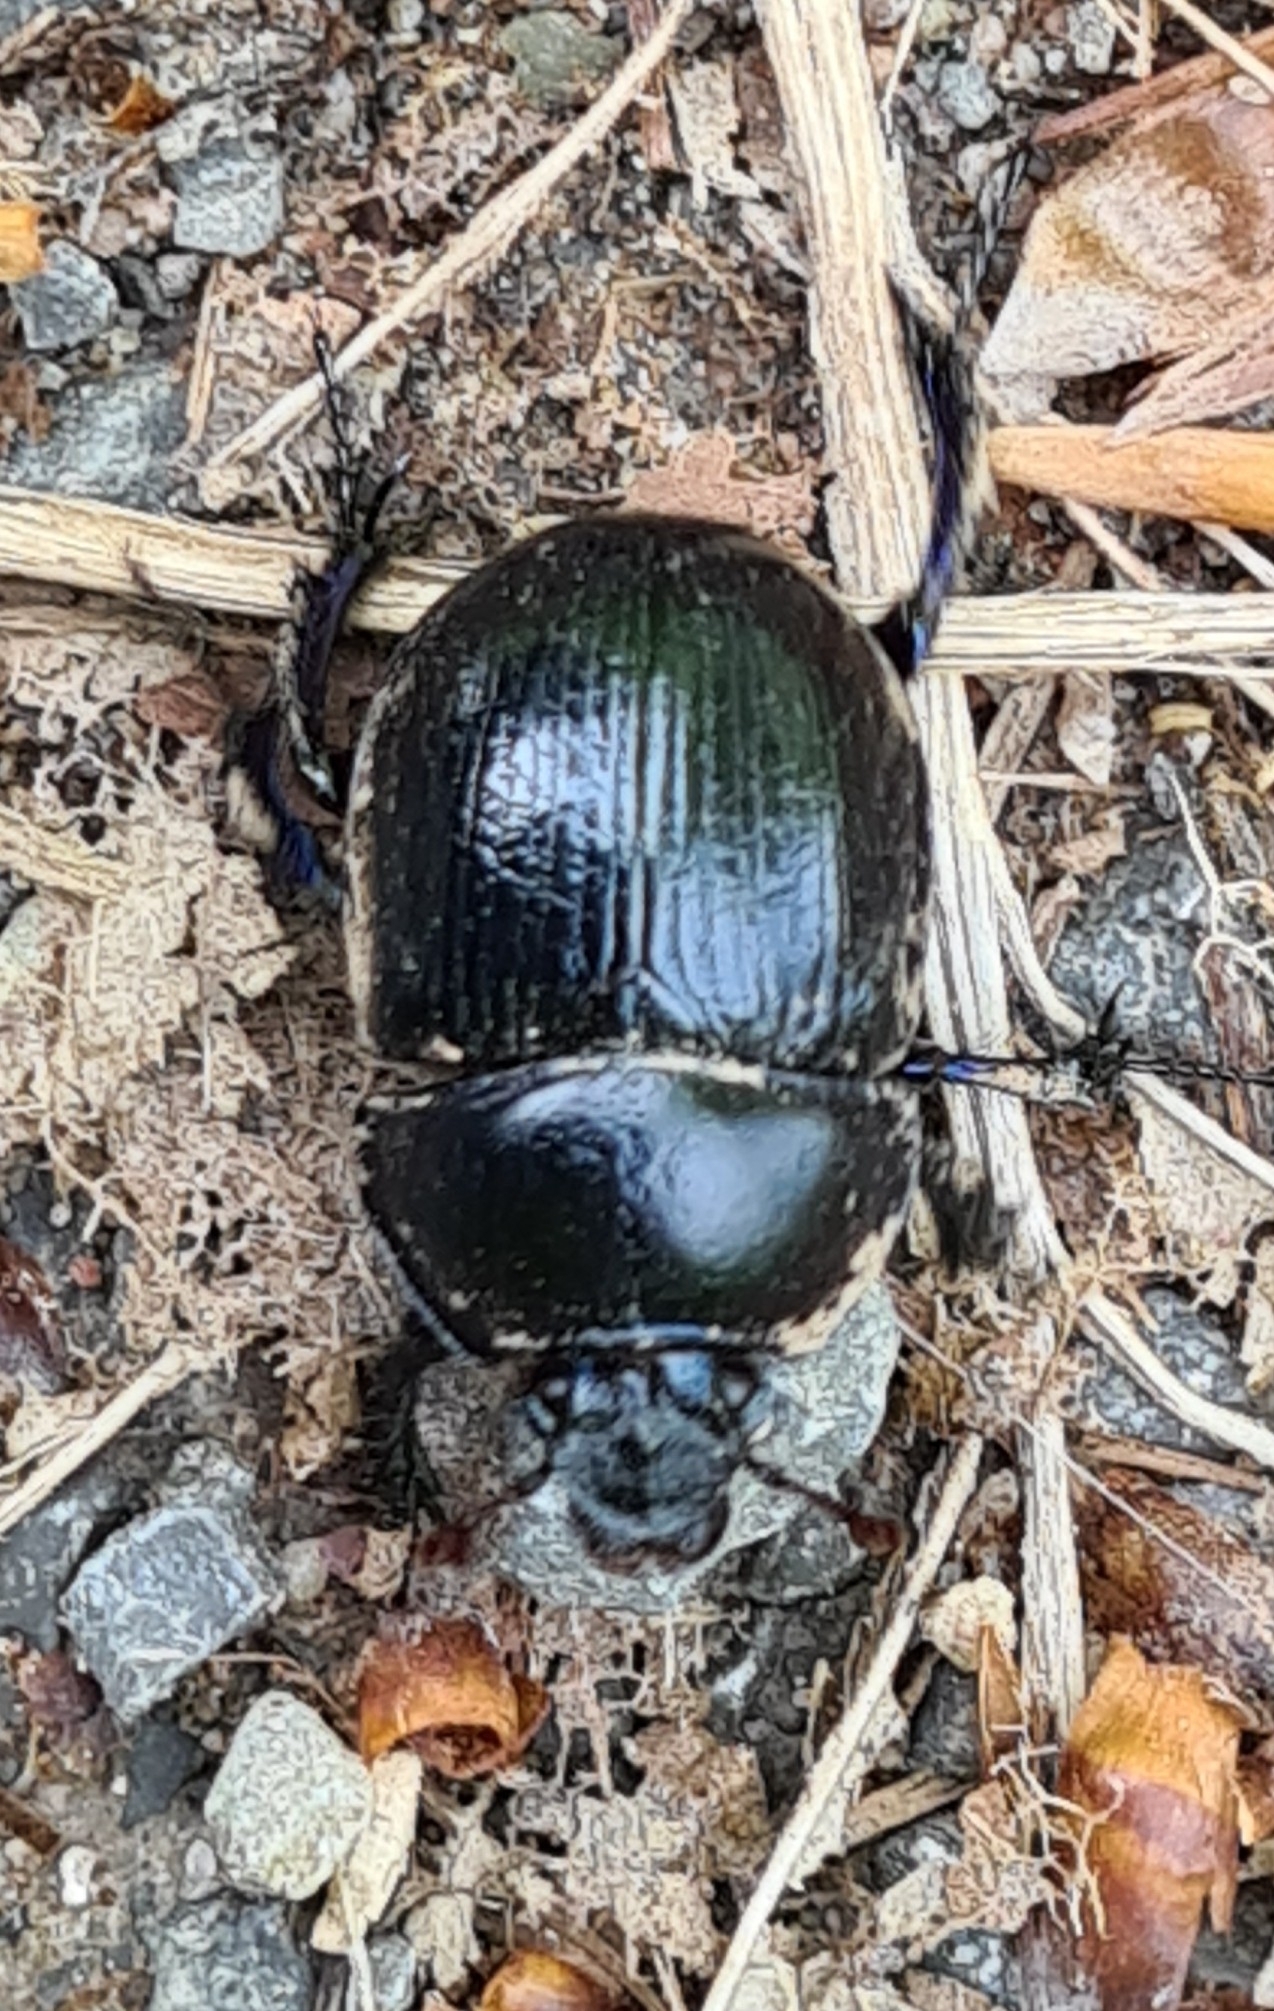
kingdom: Animalia
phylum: Arthropoda
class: Insecta
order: Coleoptera
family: Geotrupidae
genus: Anoplotrupes
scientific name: Anoplotrupes stercorosus
